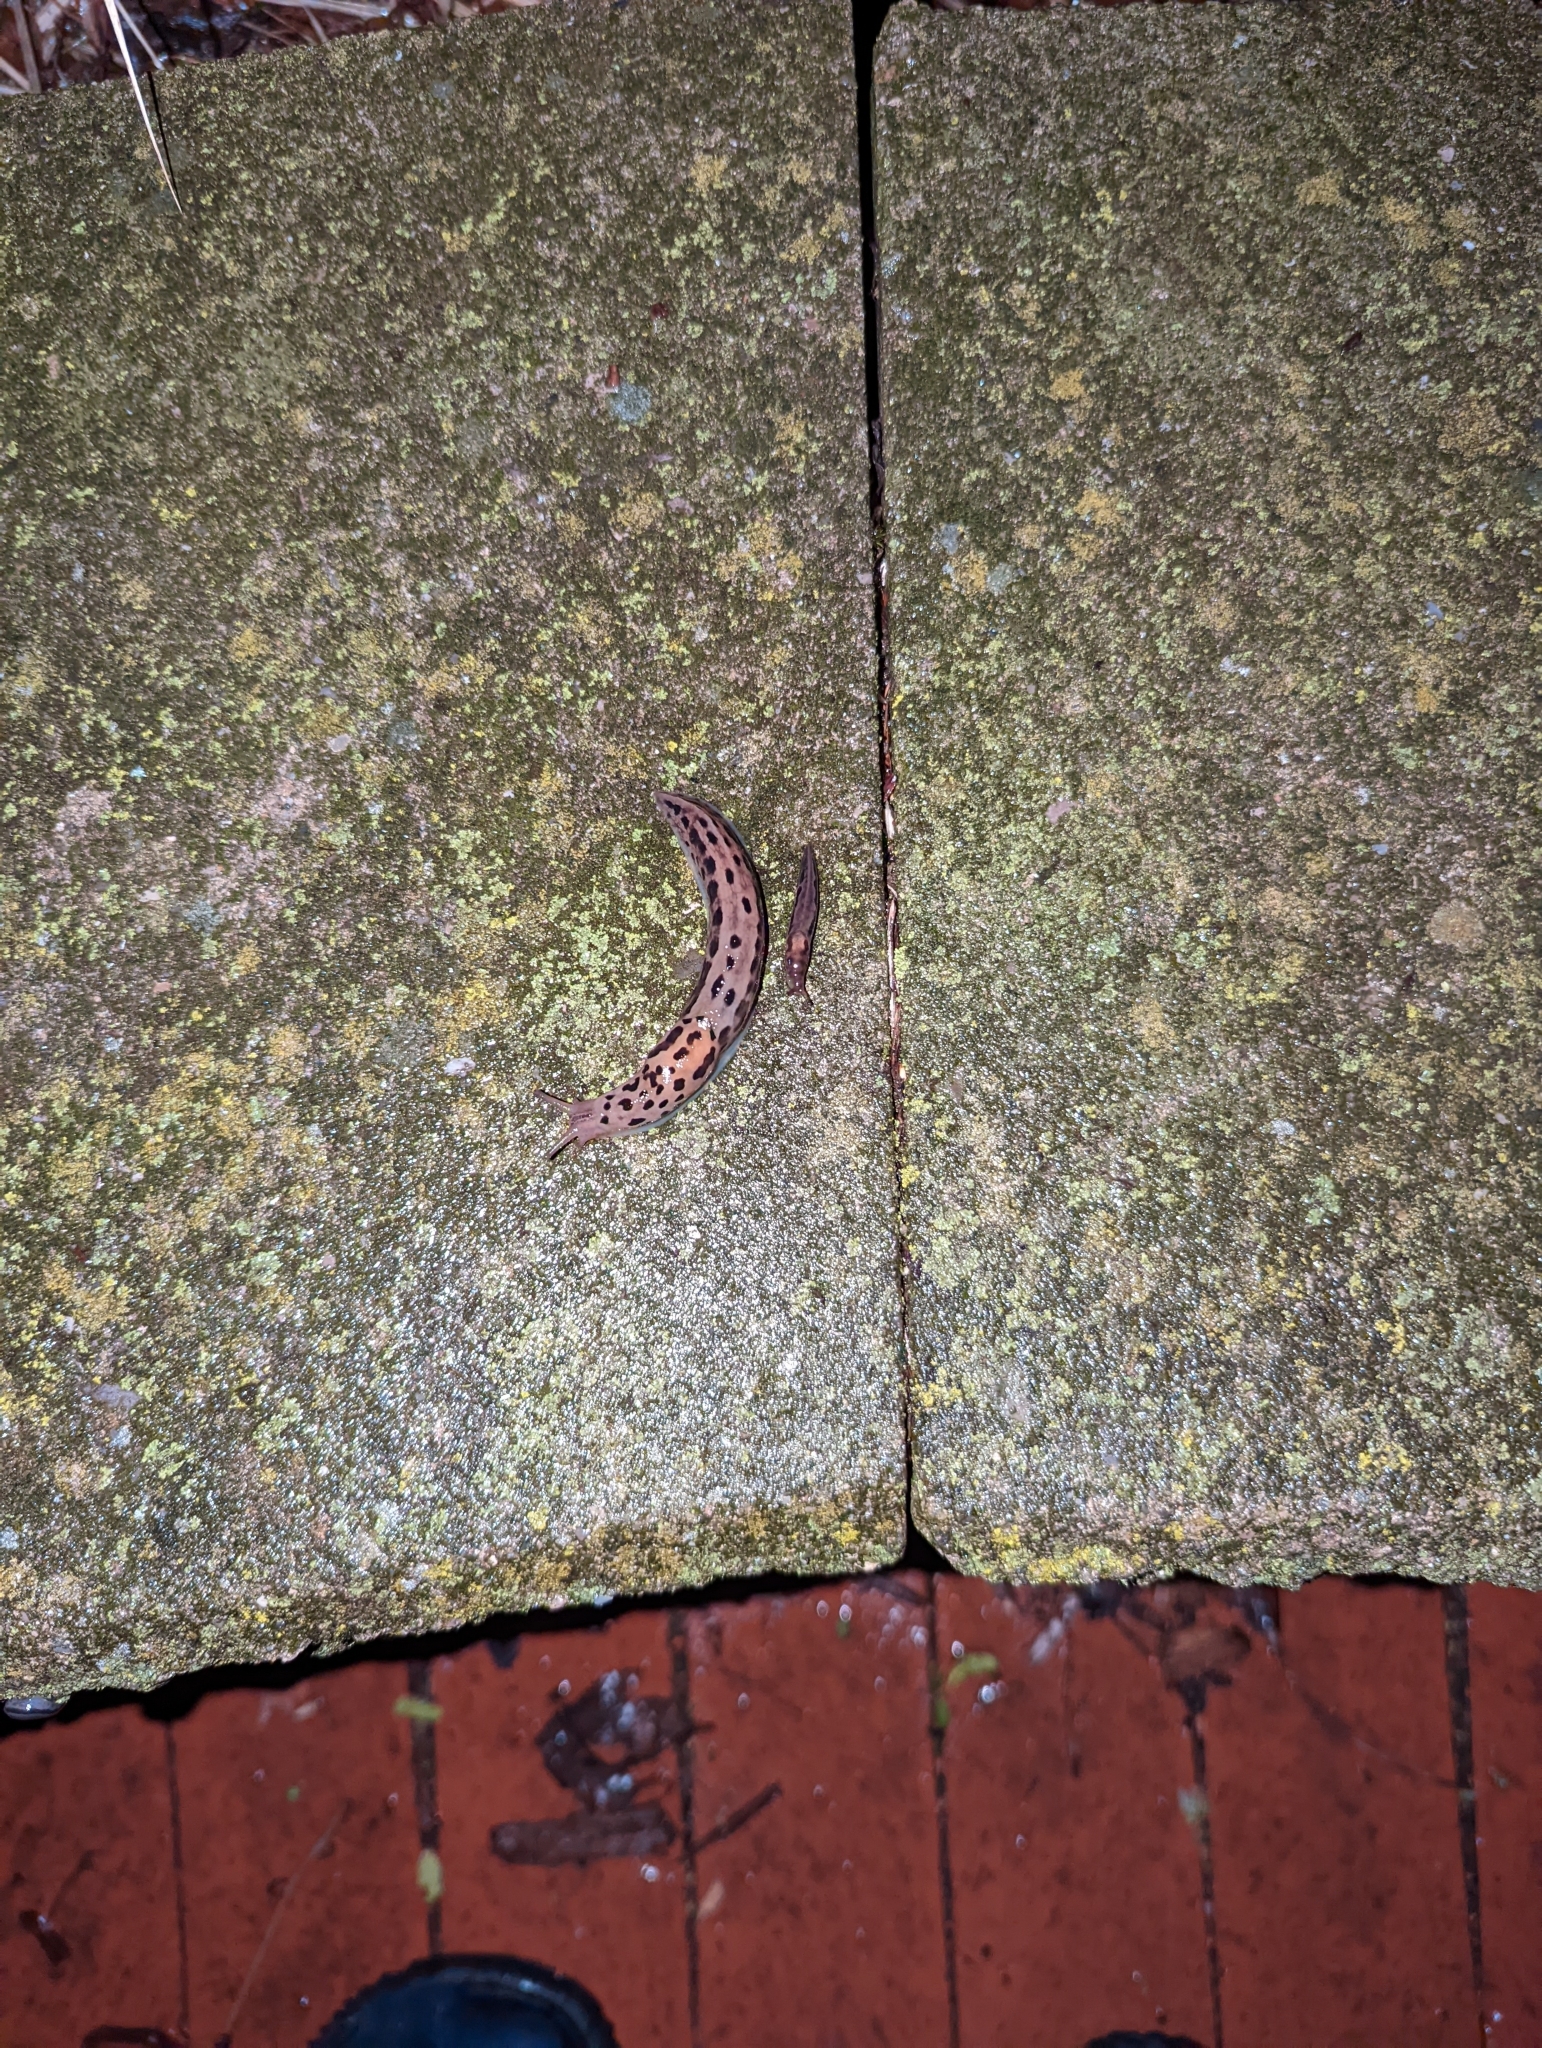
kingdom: Animalia
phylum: Mollusca
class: Gastropoda
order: Stylommatophora
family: Limacidae
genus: Limax
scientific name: Limax maximus
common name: Great grey slug
